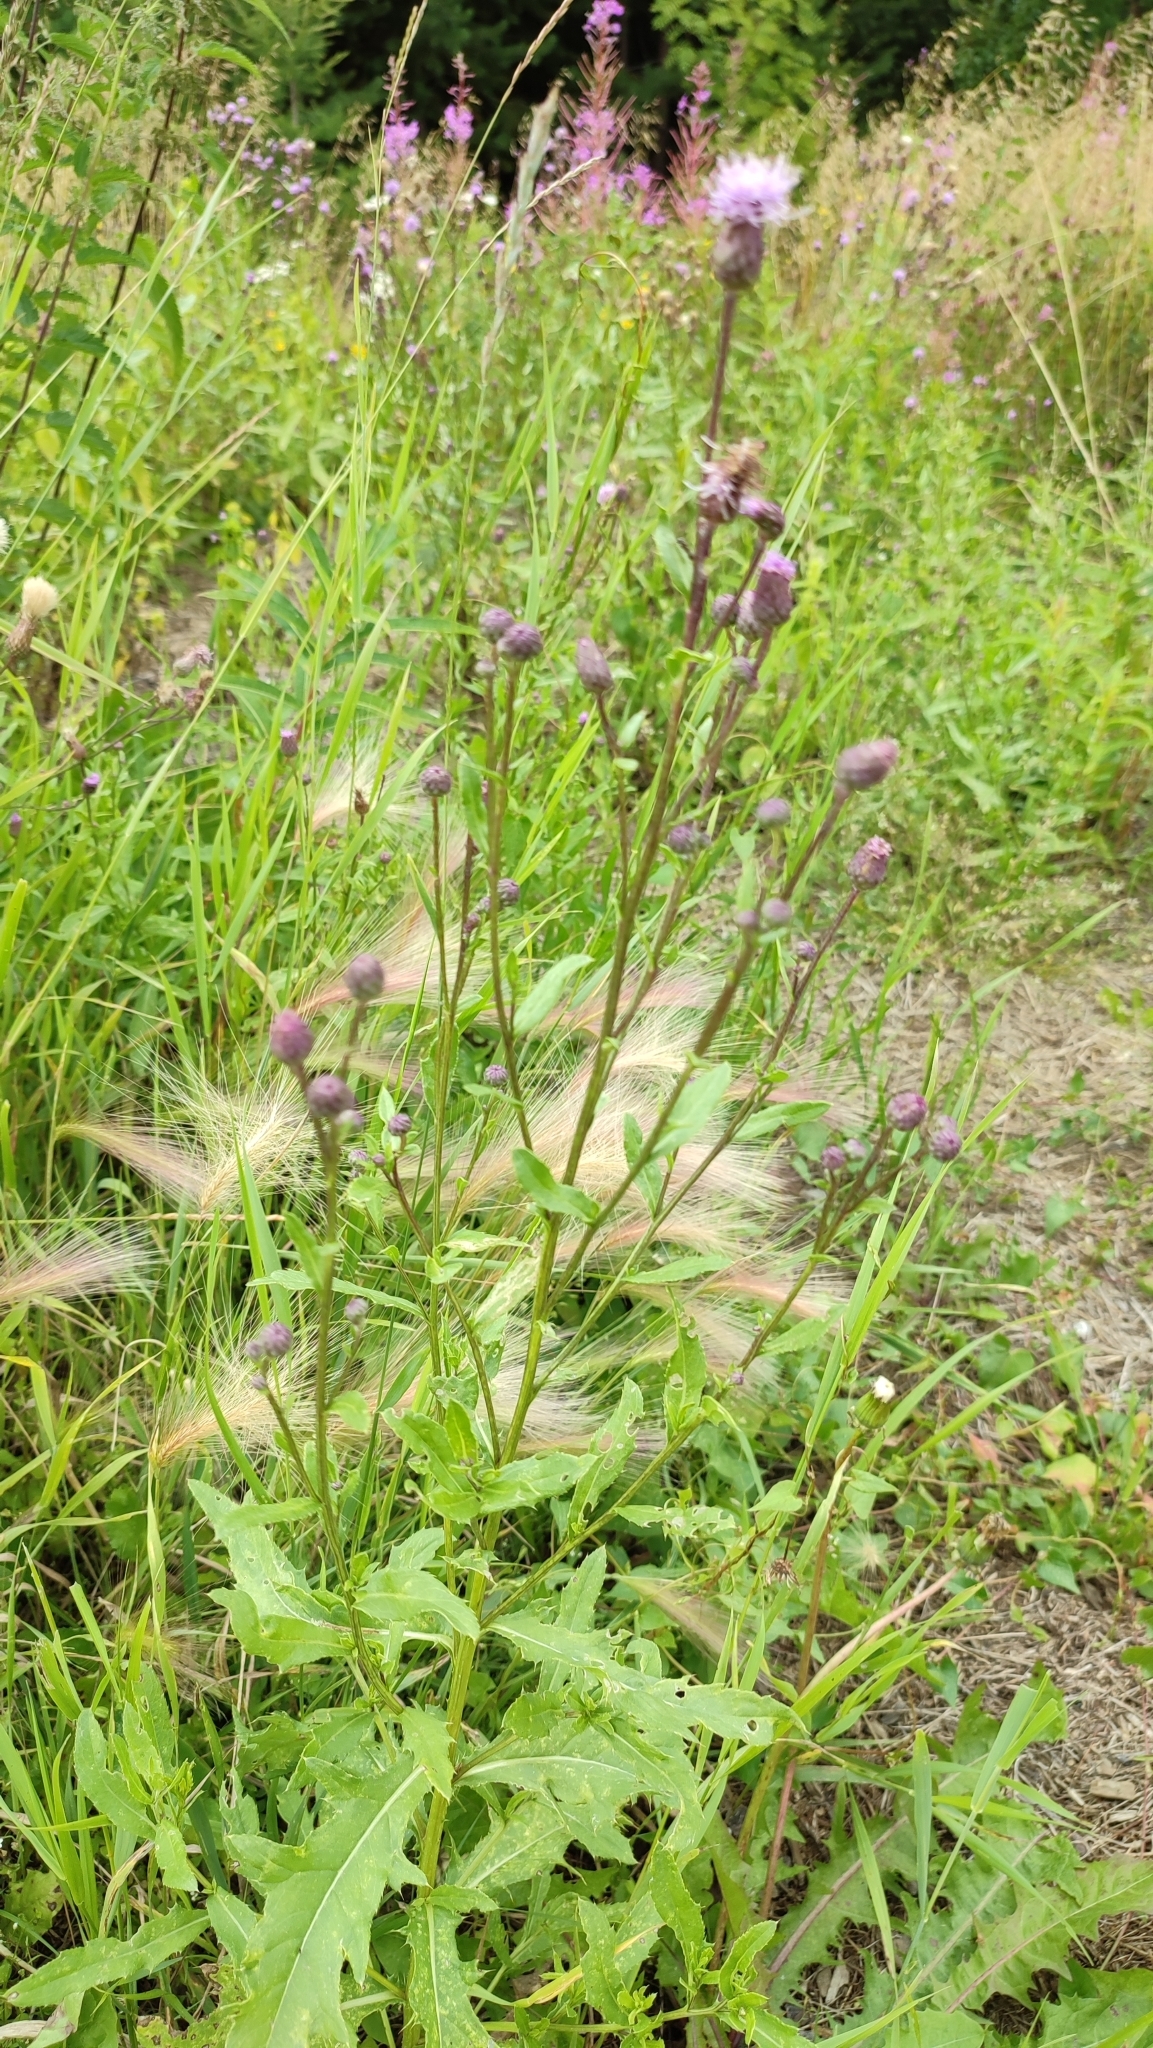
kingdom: Plantae
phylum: Tracheophyta
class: Magnoliopsida
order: Asterales
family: Asteraceae
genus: Cirsium
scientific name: Cirsium arvense
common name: Creeping thistle
